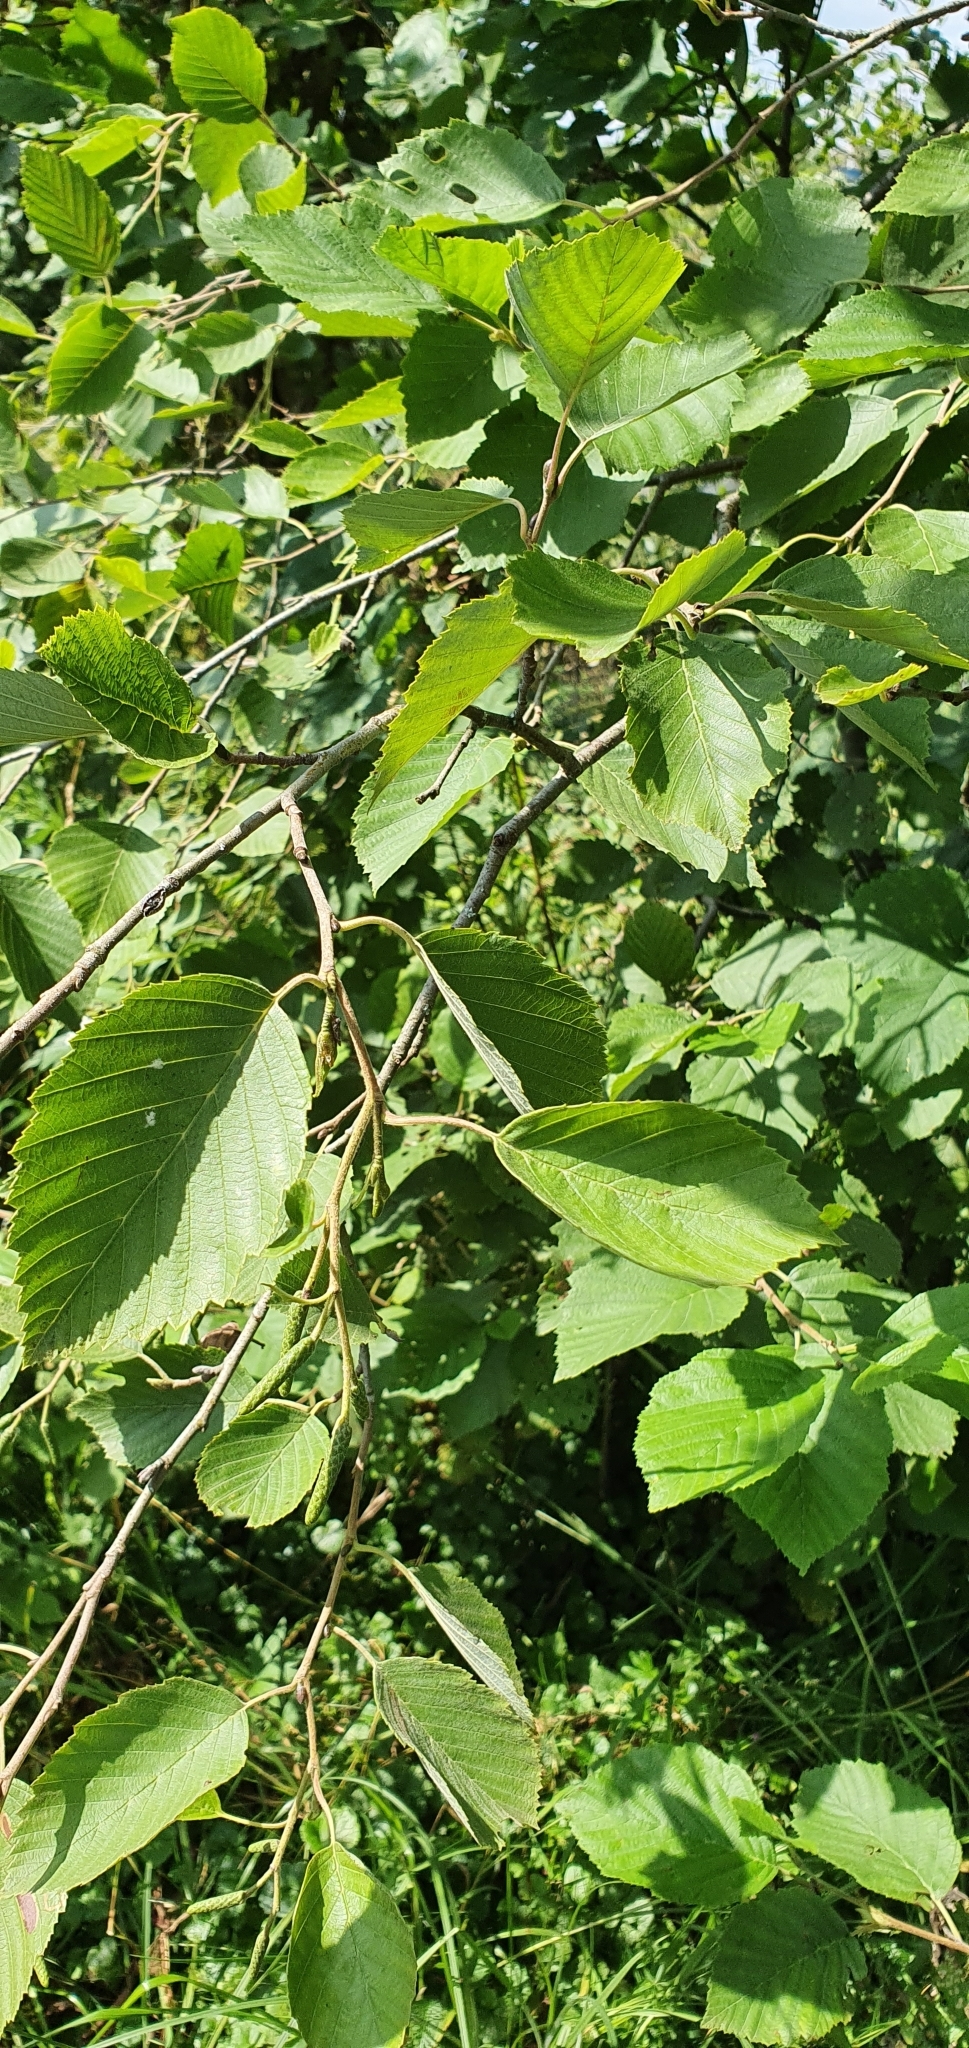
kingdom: Plantae
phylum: Tracheophyta
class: Magnoliopsida
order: Fagales
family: Betulaceae
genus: Alnus
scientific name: Alnus incana
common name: Grey alder
